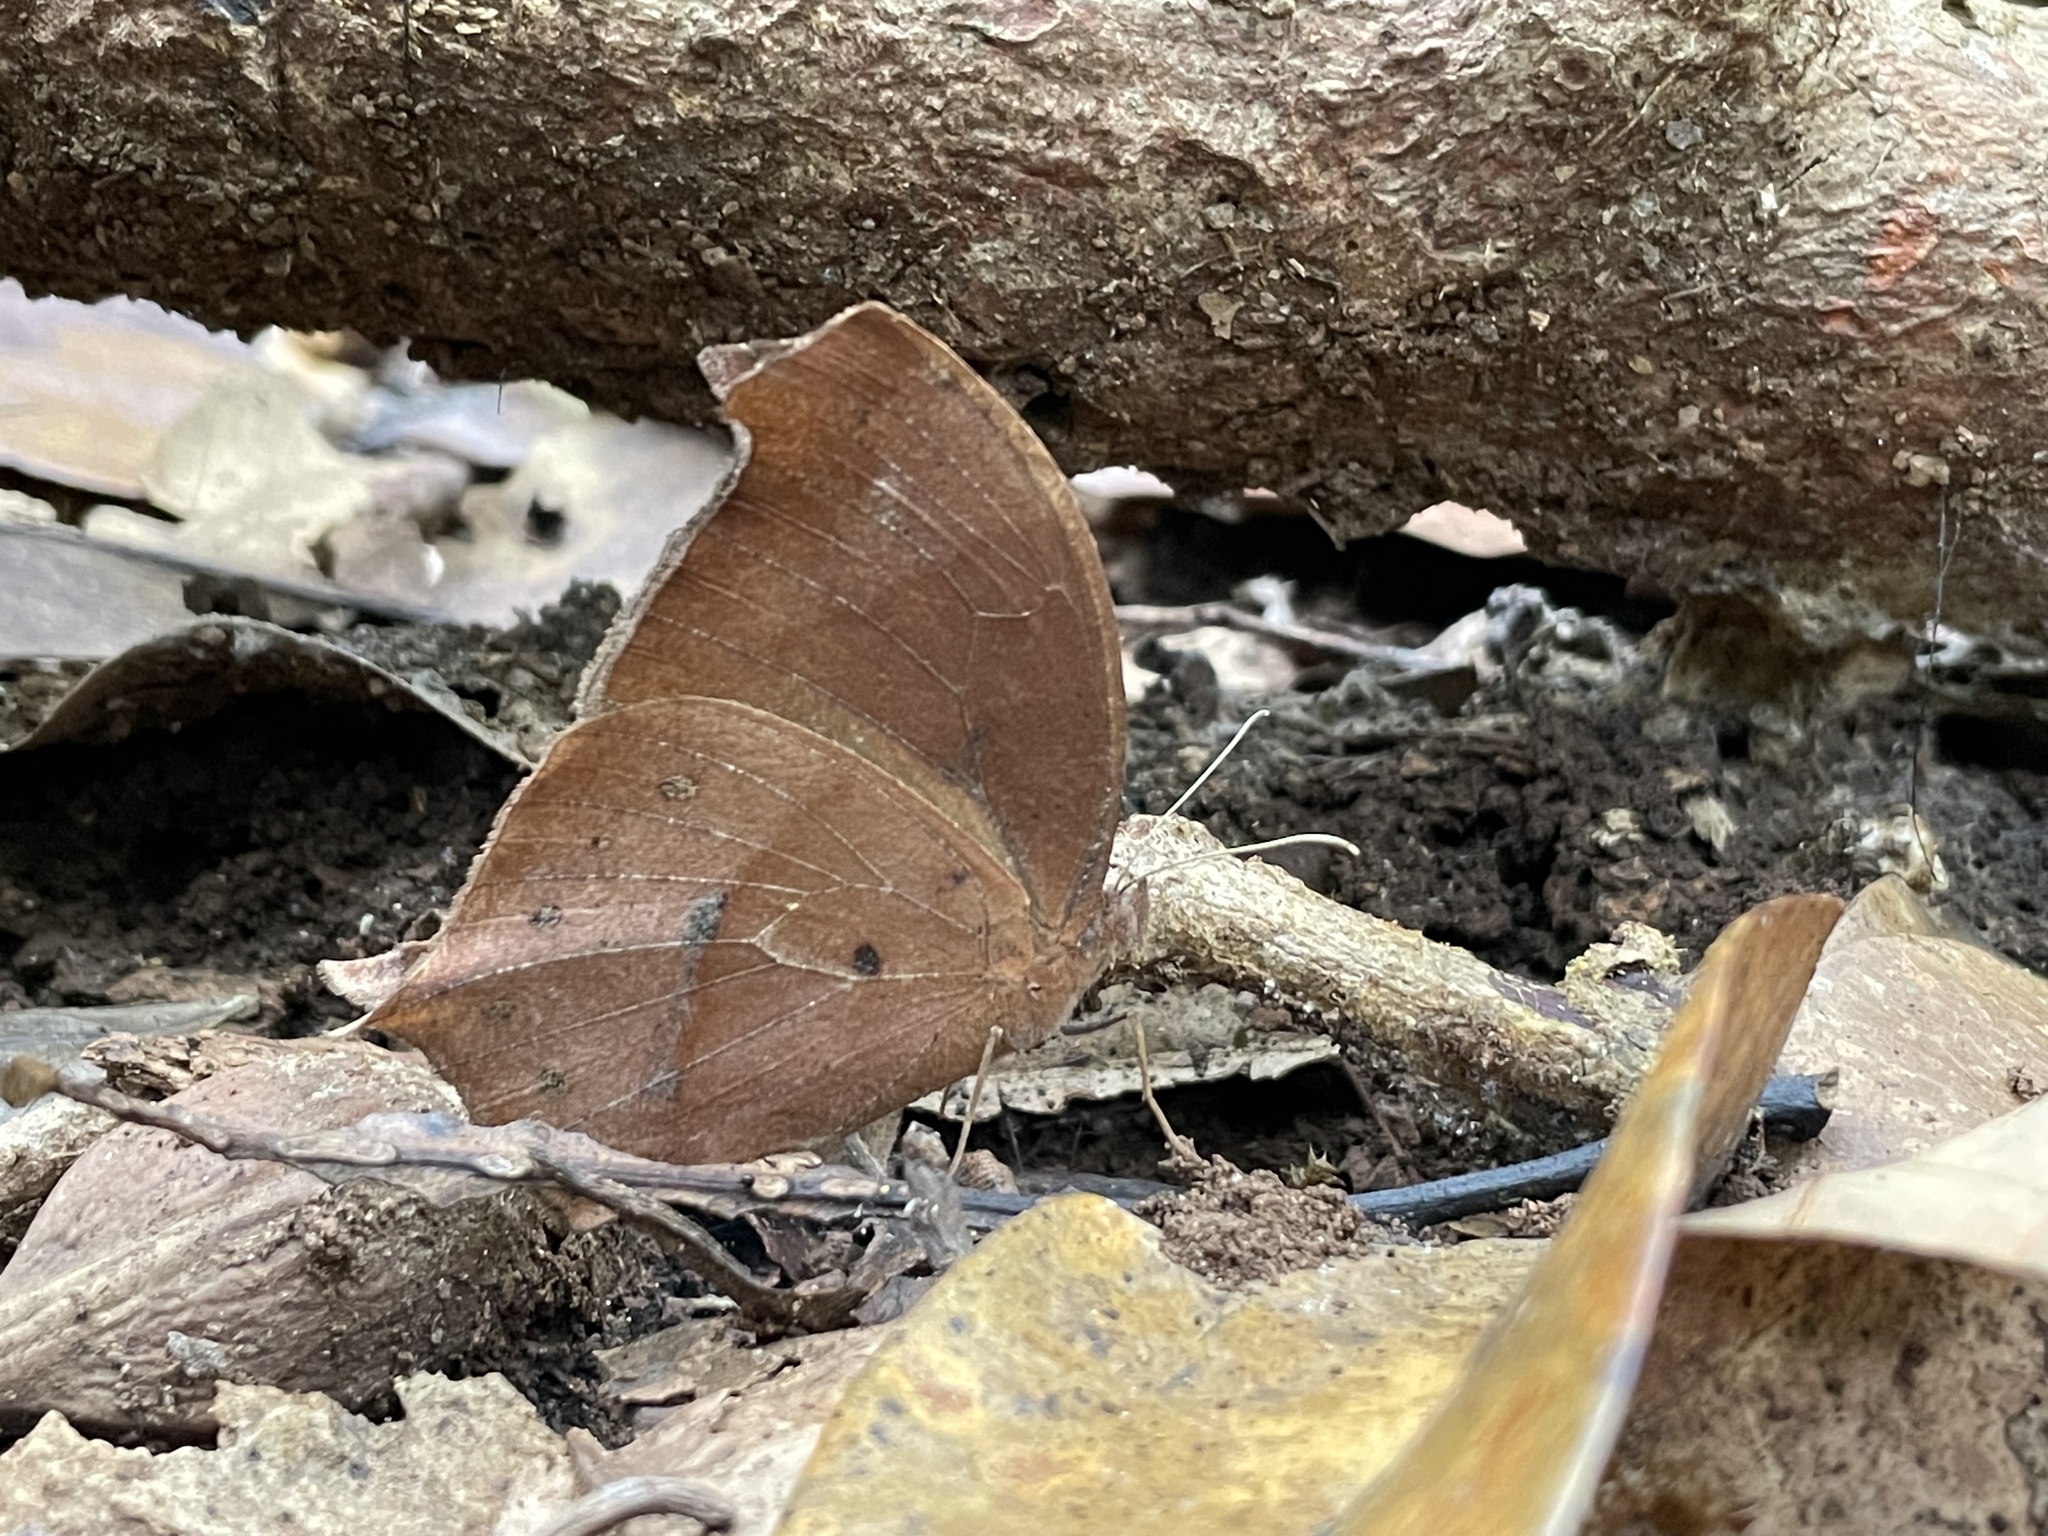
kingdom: Animalia
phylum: Arthropoda
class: Insecta
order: Lepidoptera
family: Nymphalidae
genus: Melanitis
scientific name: Melanitis phedima
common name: Dark evening brown
